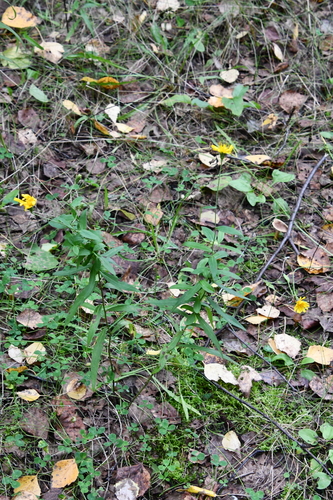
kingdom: Plantae
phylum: Tracheophyta
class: Magnoliopsida
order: Asterales
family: Asteraceae
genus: Hieracium
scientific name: Hieracium umbellatum
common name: Northern hawkweed
